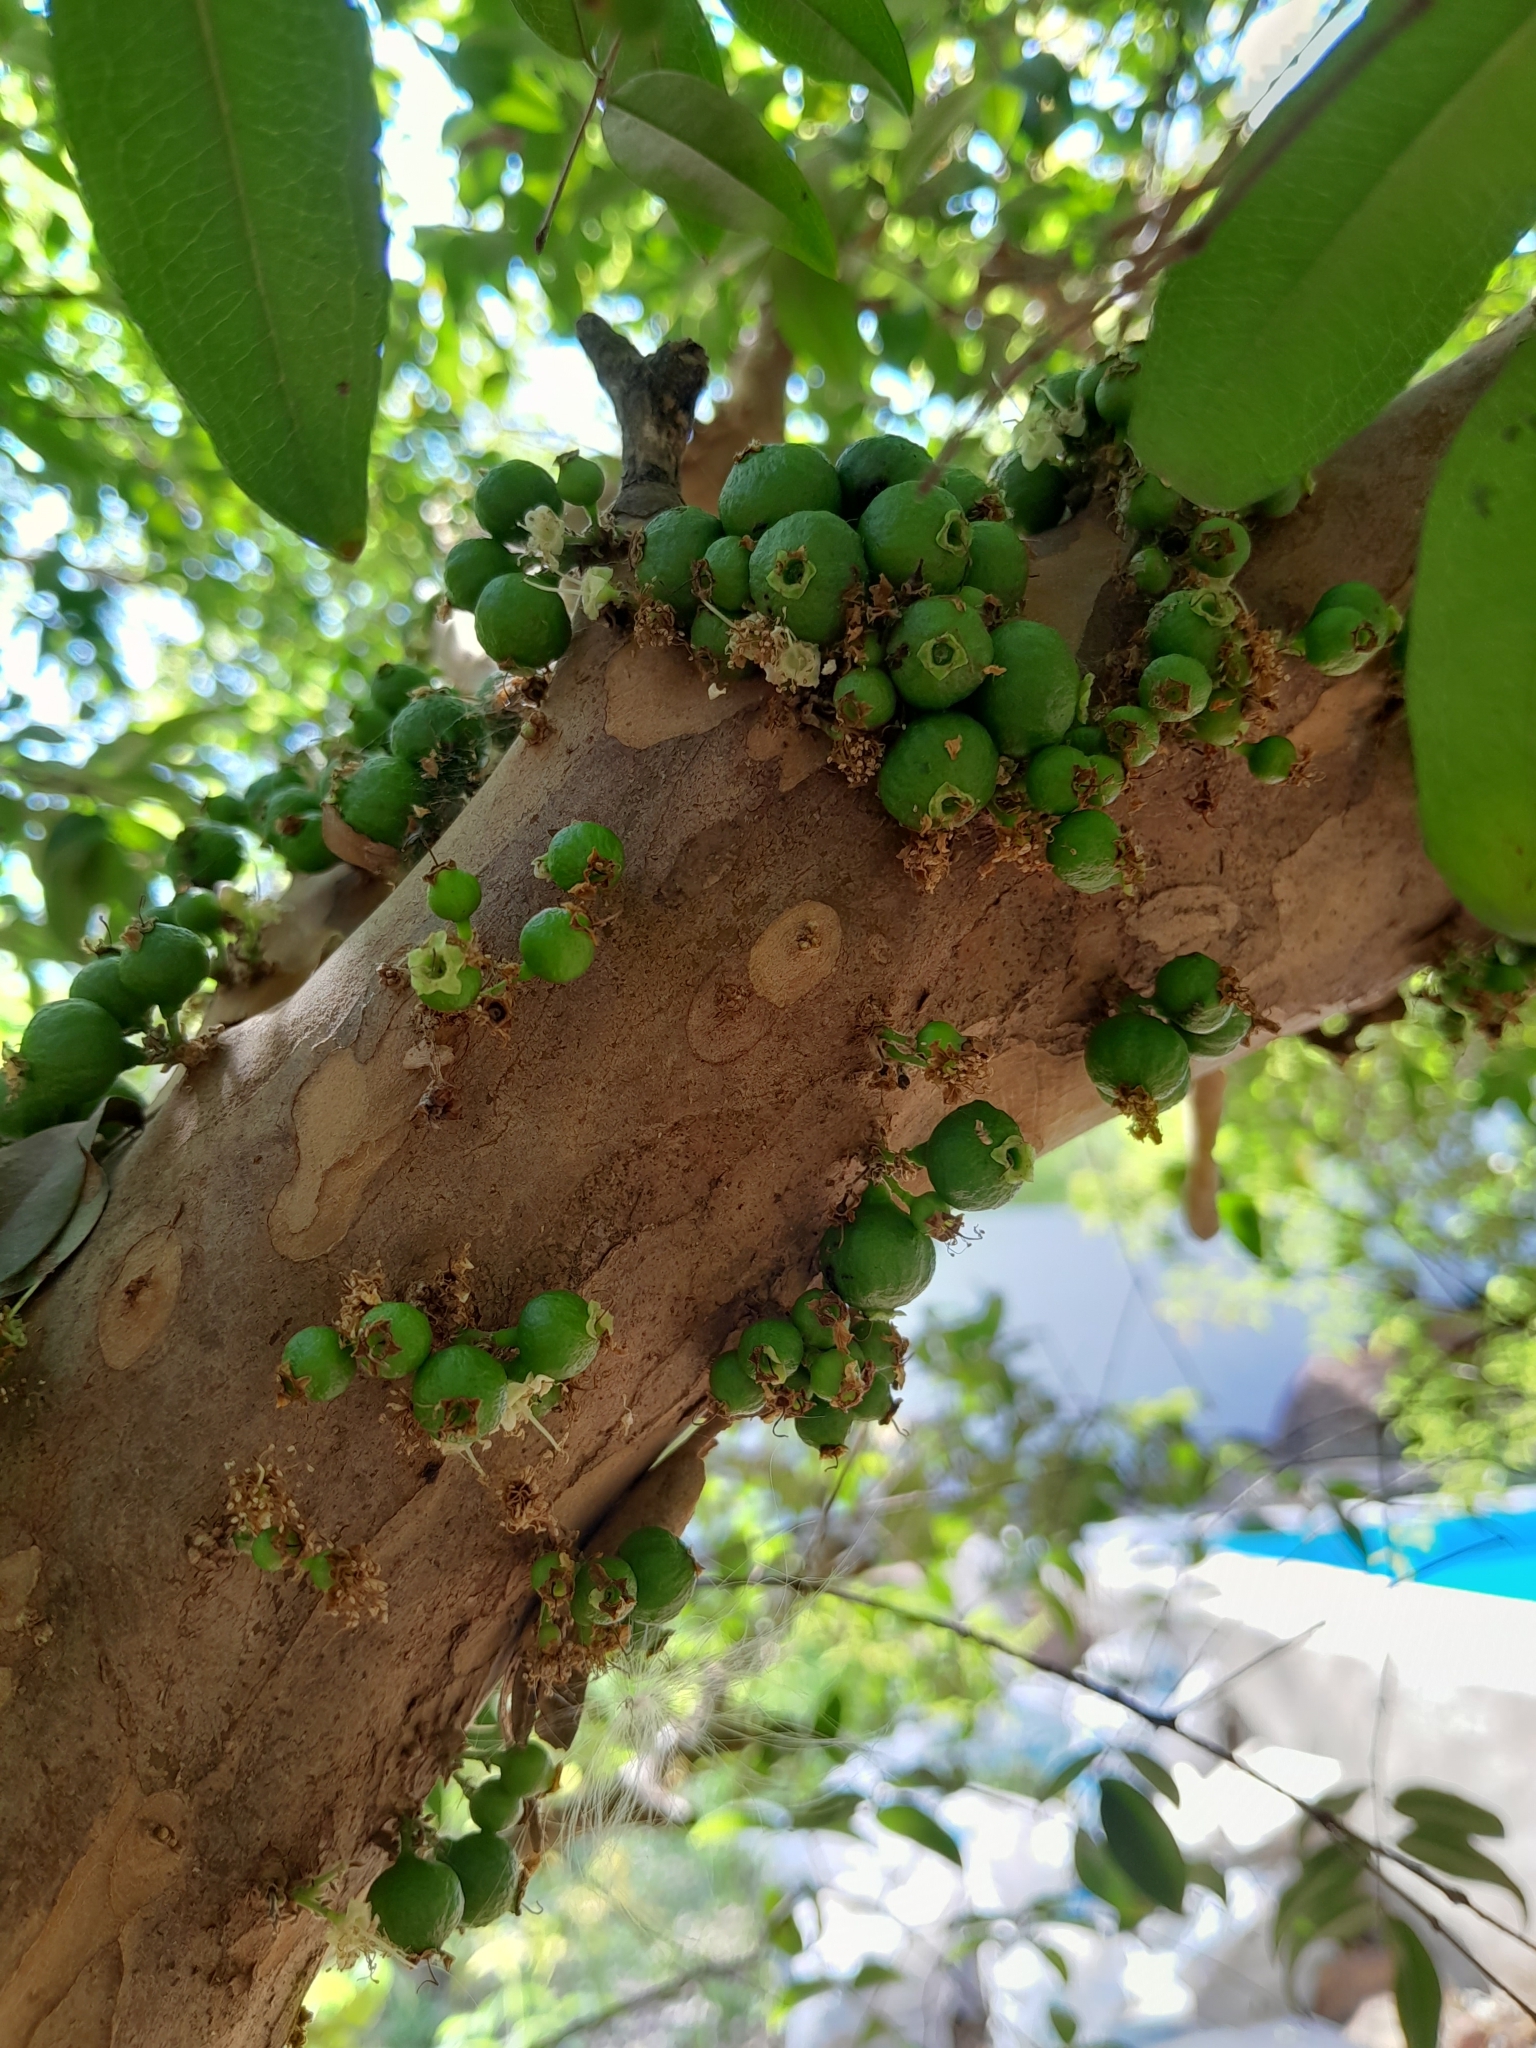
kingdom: Plantae
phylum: Tracheophyta
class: Magnoliopsida
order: Myrtales
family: Myrtaceae
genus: Plinia
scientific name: Plinia cauliflora
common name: Brazilian grapetree
